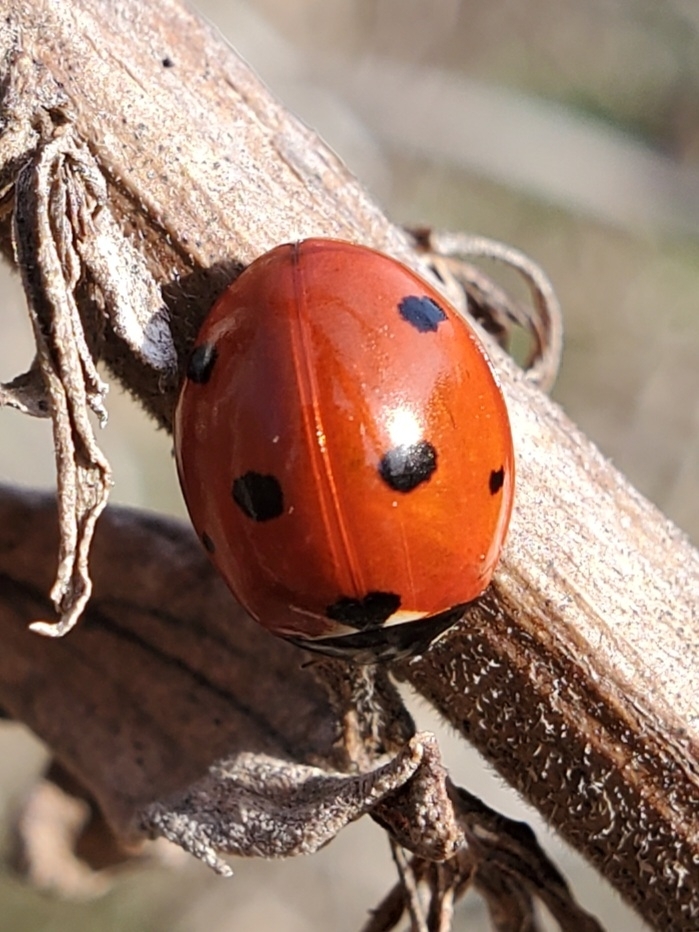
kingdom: Animalia
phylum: Arthropoda
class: Insecta
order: Coleoptera
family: Coccinellidae
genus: Coccinella
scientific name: Coccinella septempunctata
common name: Sevenspotted lady beetle
